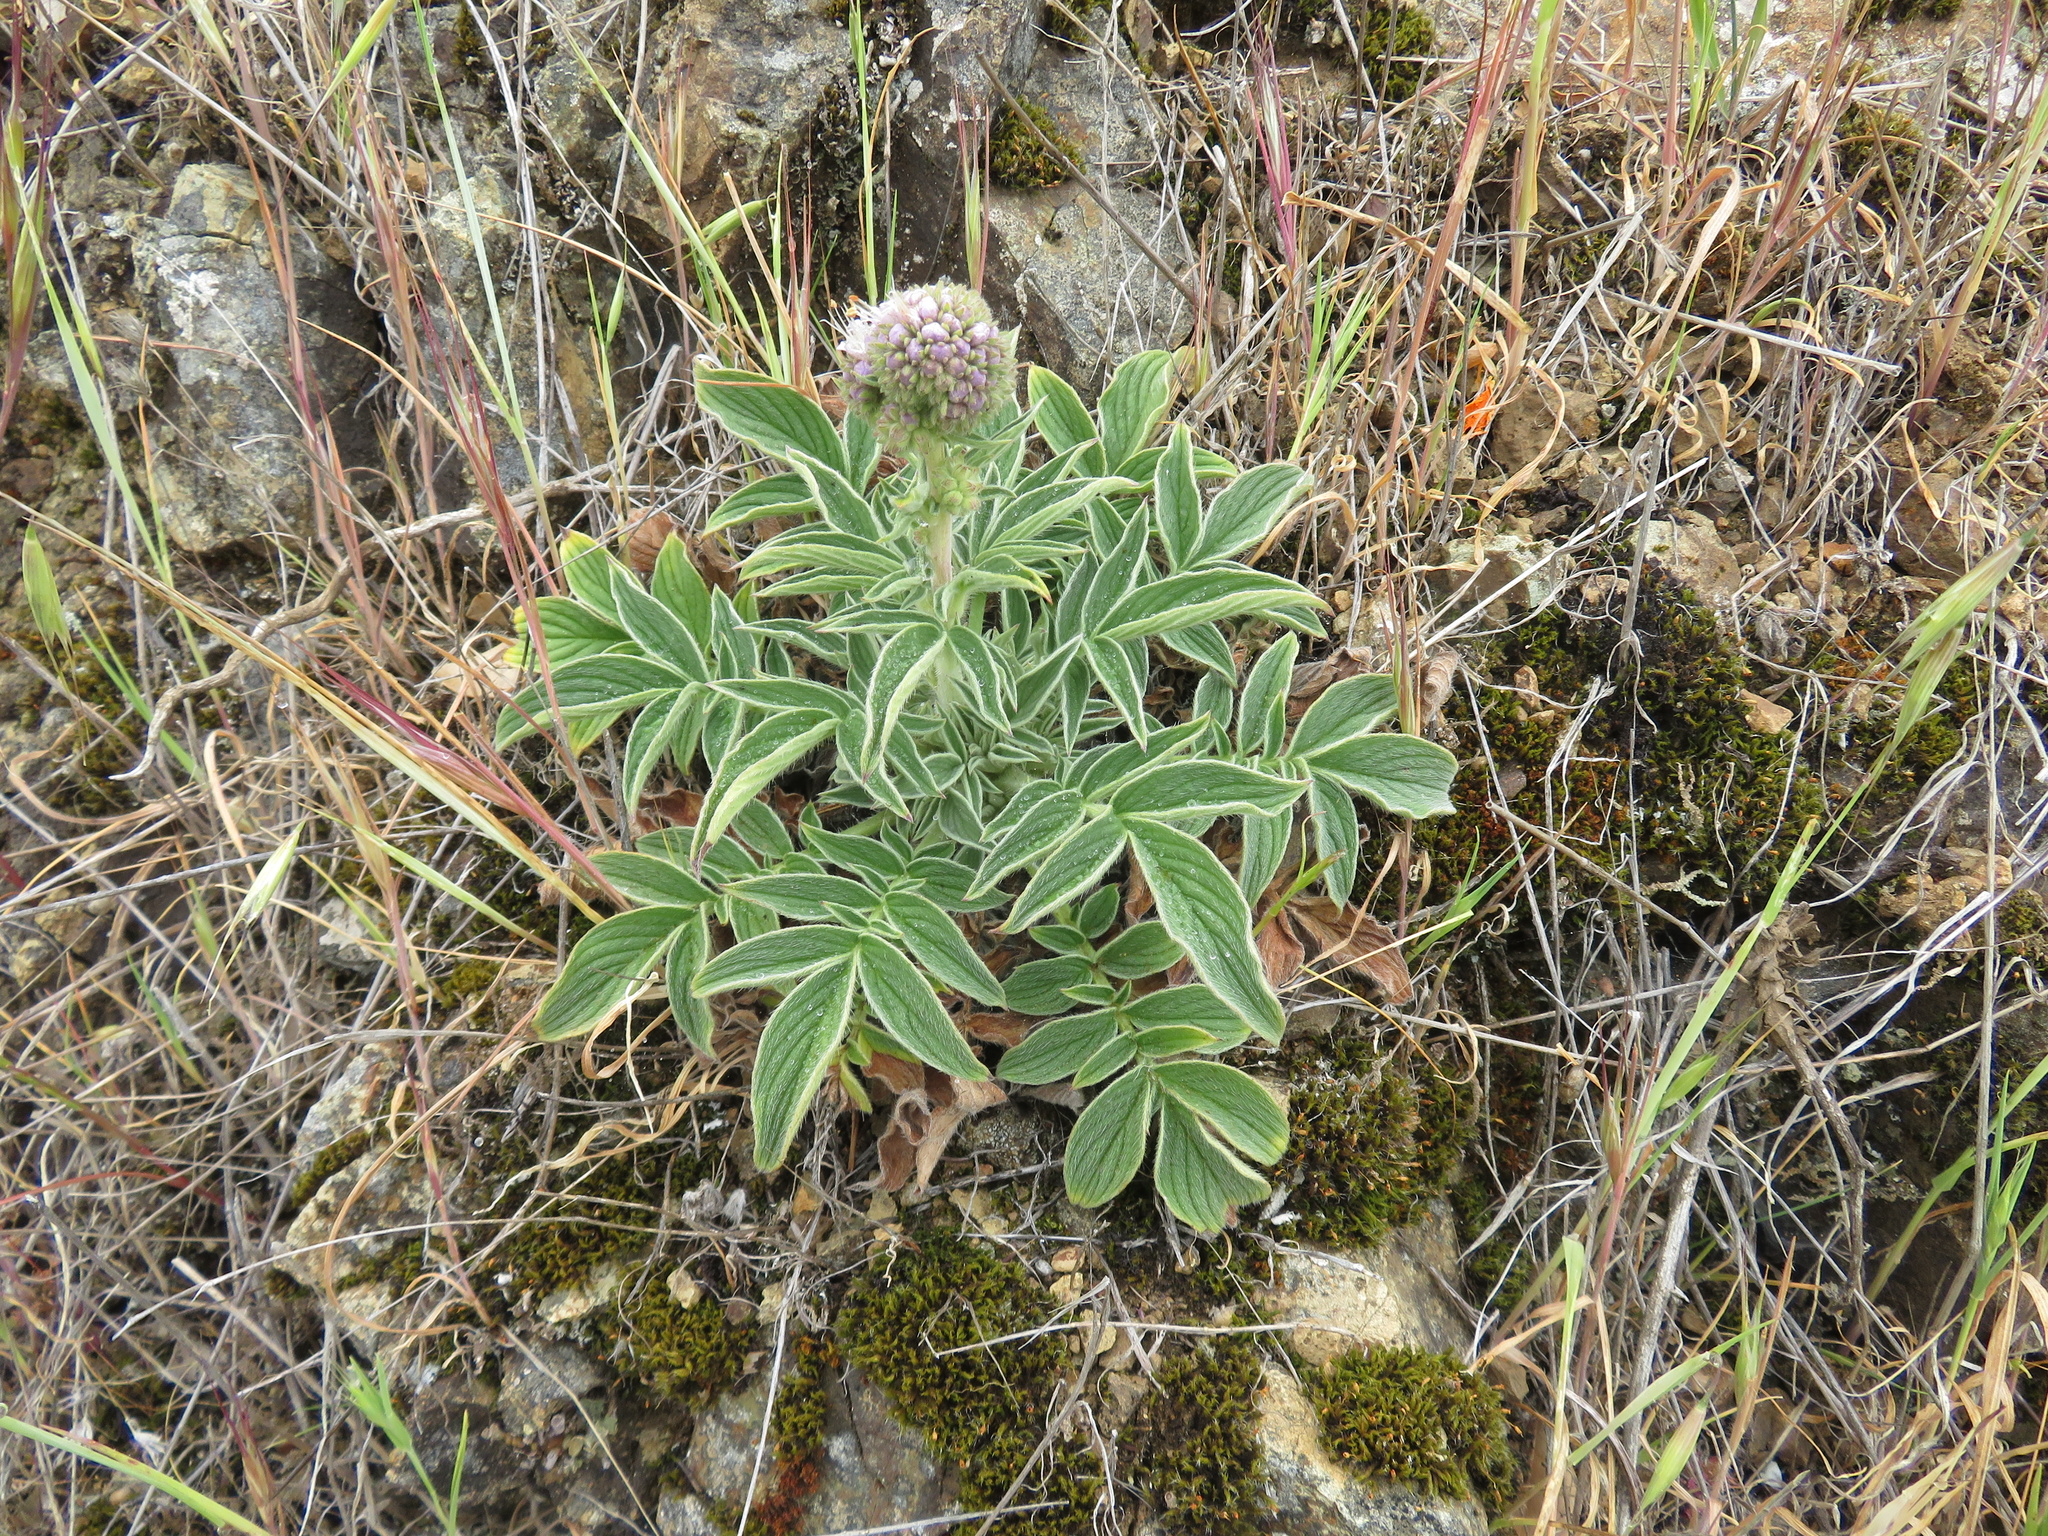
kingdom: Plantae
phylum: Tracheophyta
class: Magnoliopsida
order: Boraginales
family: Hydrophyllaceae
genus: Phacelia
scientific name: Phacelia californica
